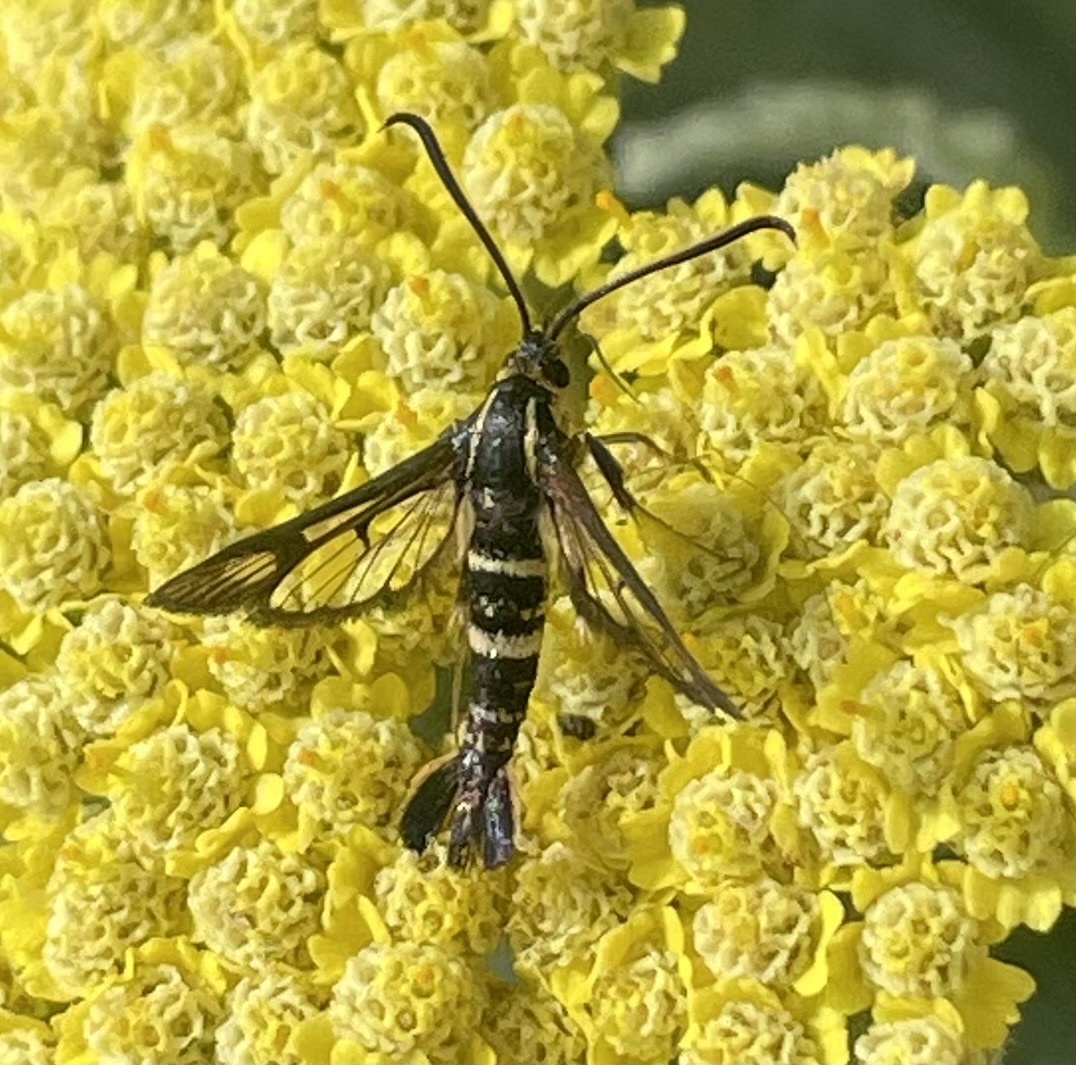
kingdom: Animalia
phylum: Arthropoda
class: Insecta
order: Lepidoptera
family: Sesiidae
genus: Synanthedon
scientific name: Synanthedon bibionipennis
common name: Strawberry crown moth
